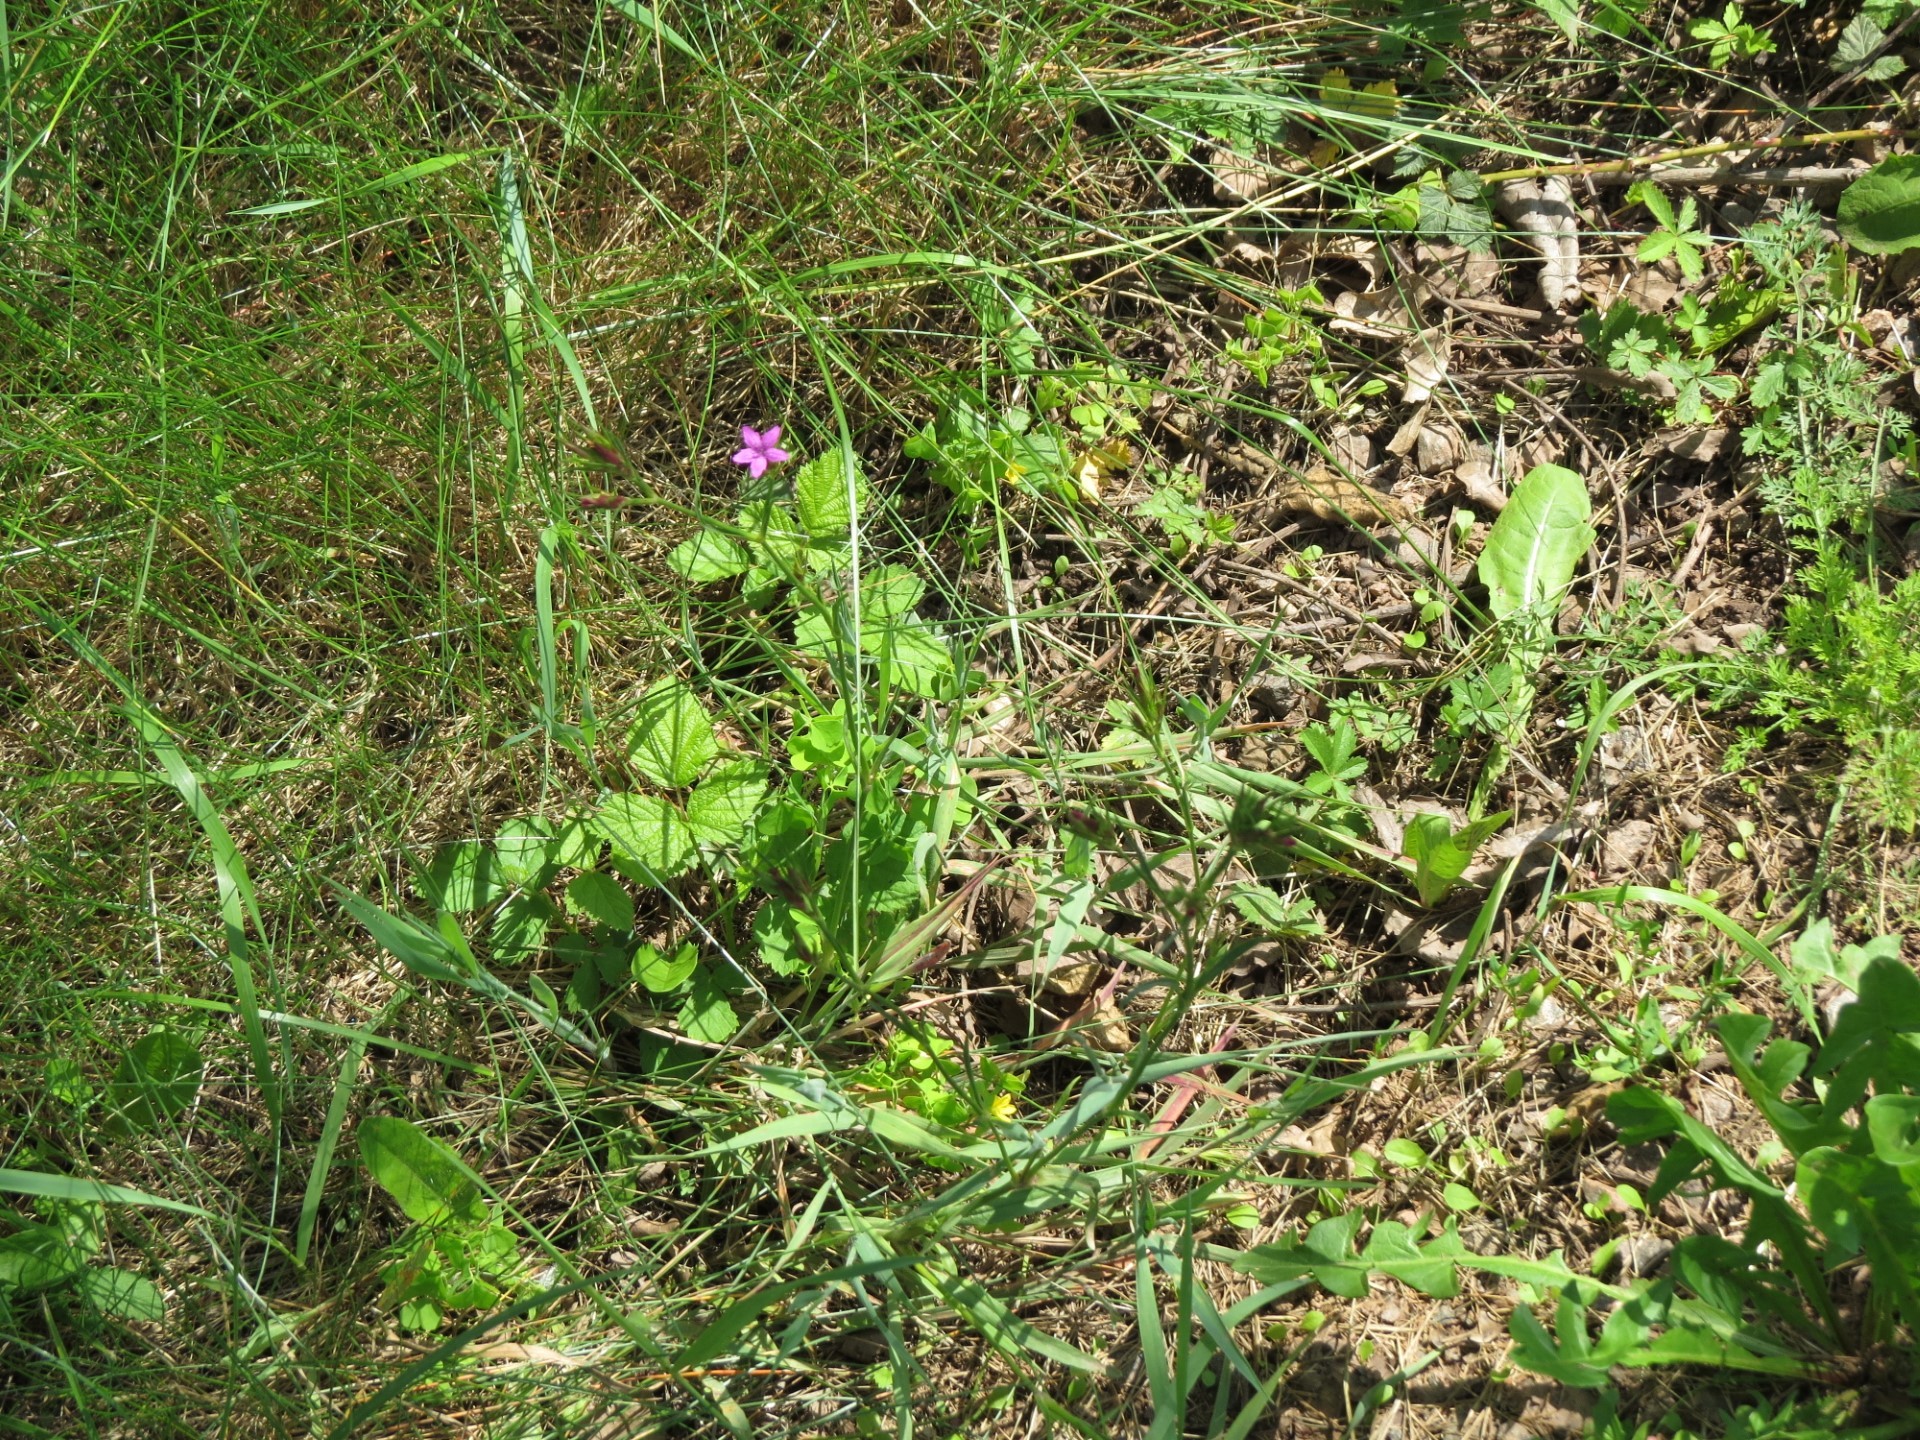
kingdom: Plantae
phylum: Tracheophyta
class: Magnoliopsida
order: Caryophyllales
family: Caryophyllaceae
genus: Dianthus
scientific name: Dianthus armeria
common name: Deptford pink
